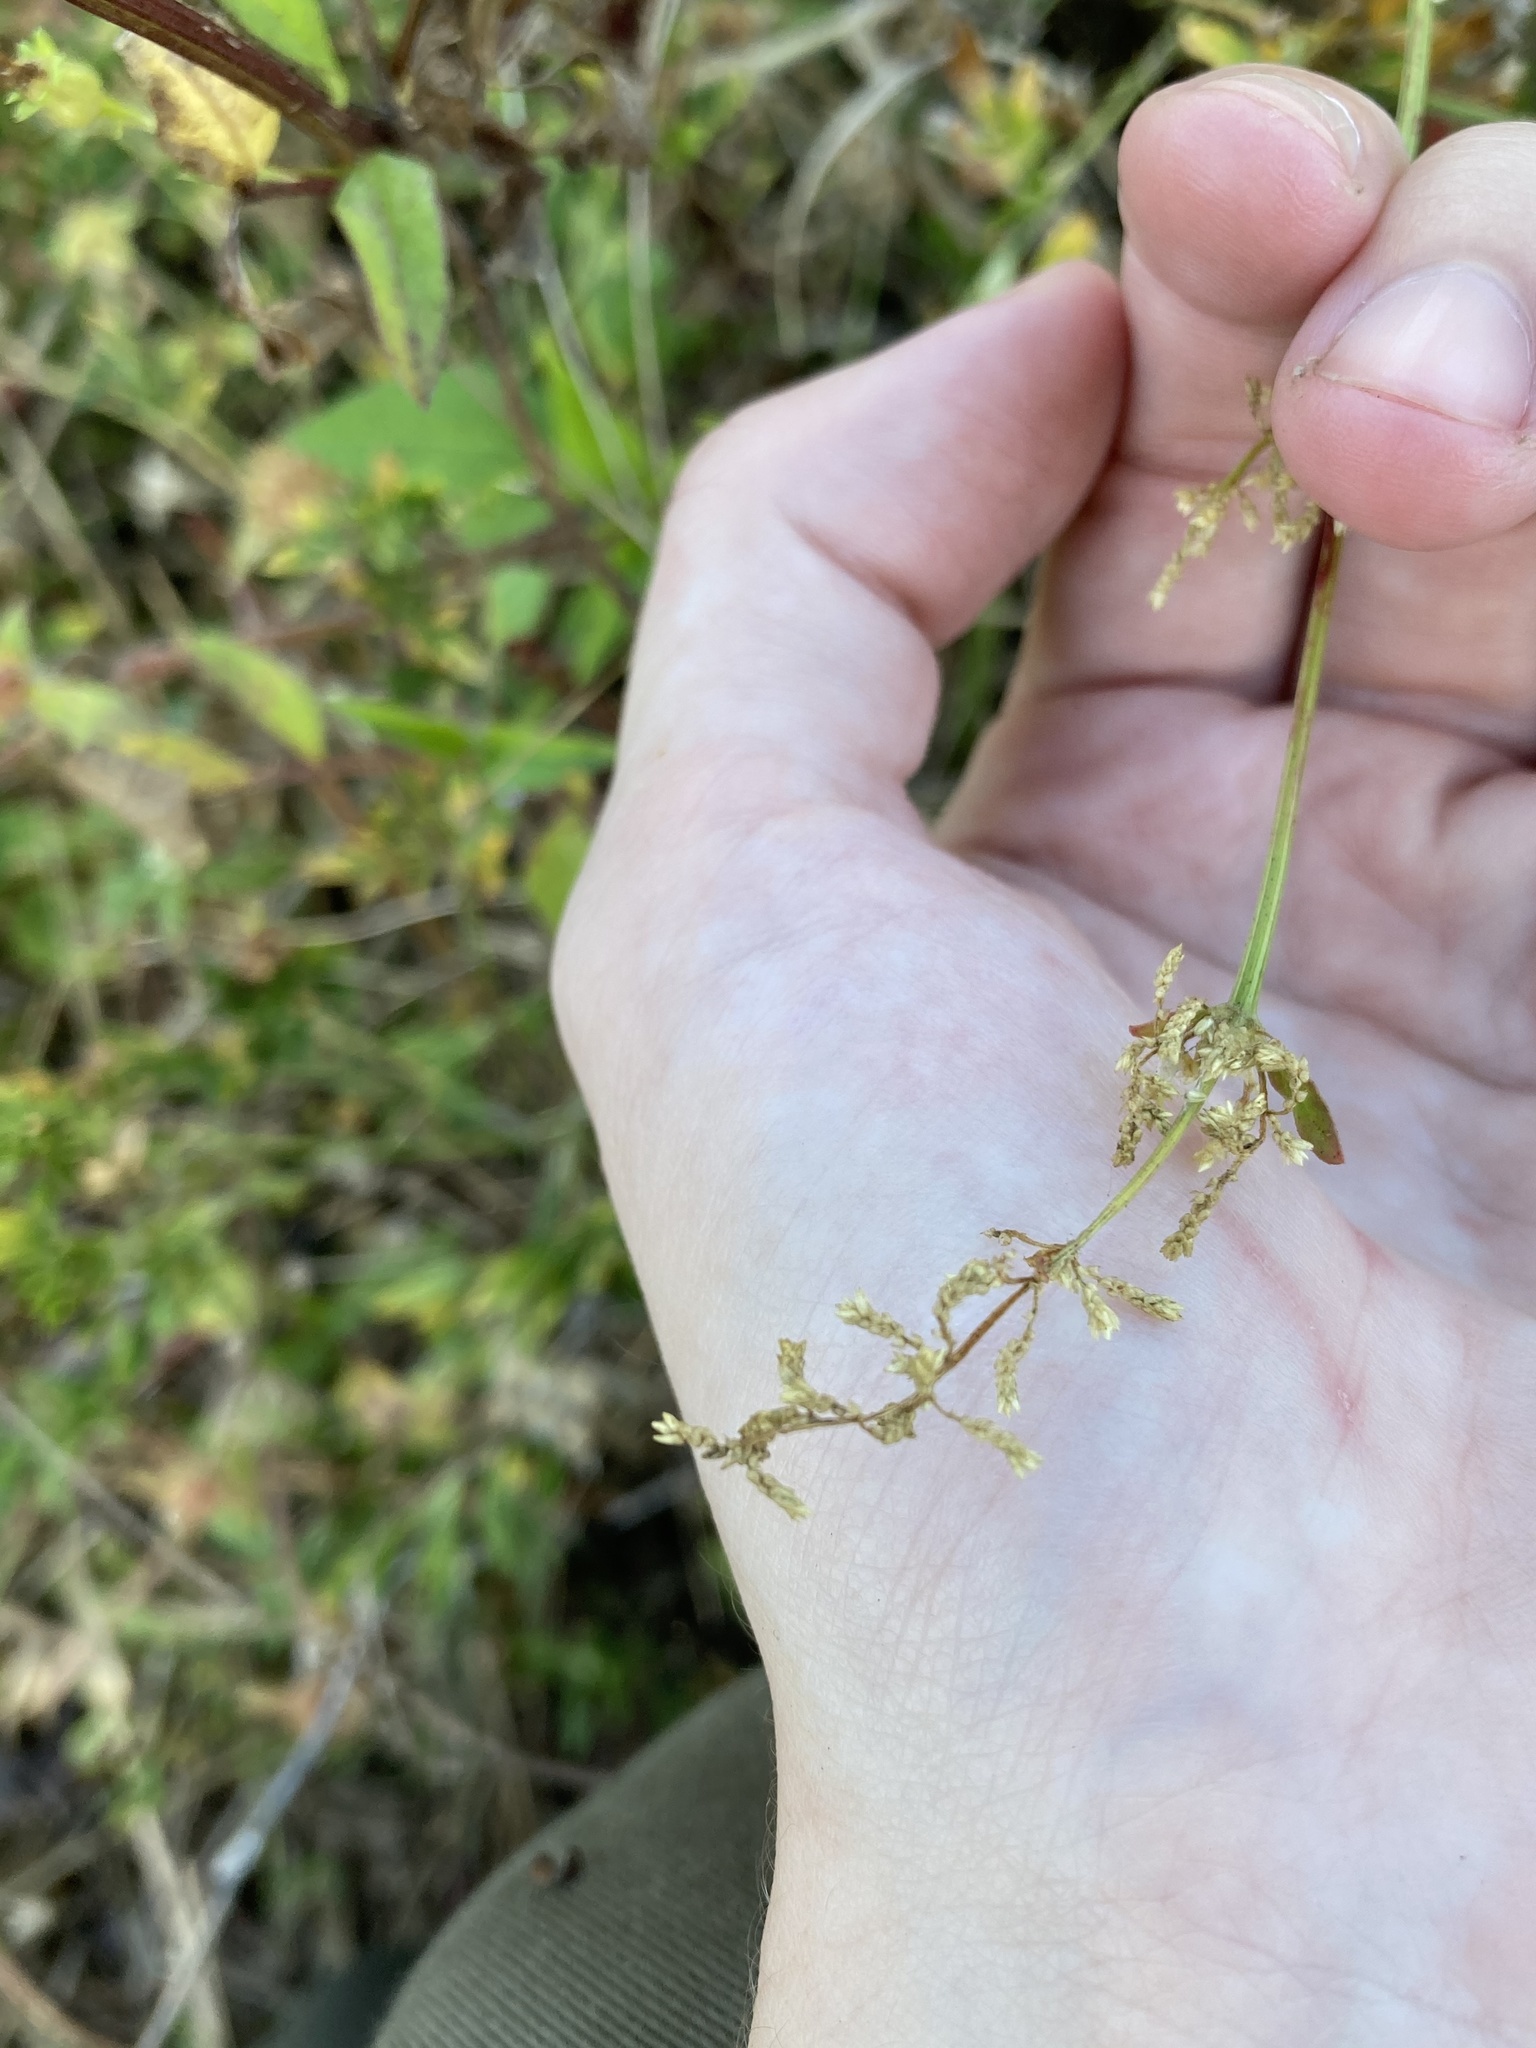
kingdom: Plantae
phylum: Tracheophyta
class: Magnoliopsida
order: Caryophyllales
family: Amaranthaceae
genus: Iresine
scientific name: Iresine diffusa
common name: Juba's-bush
